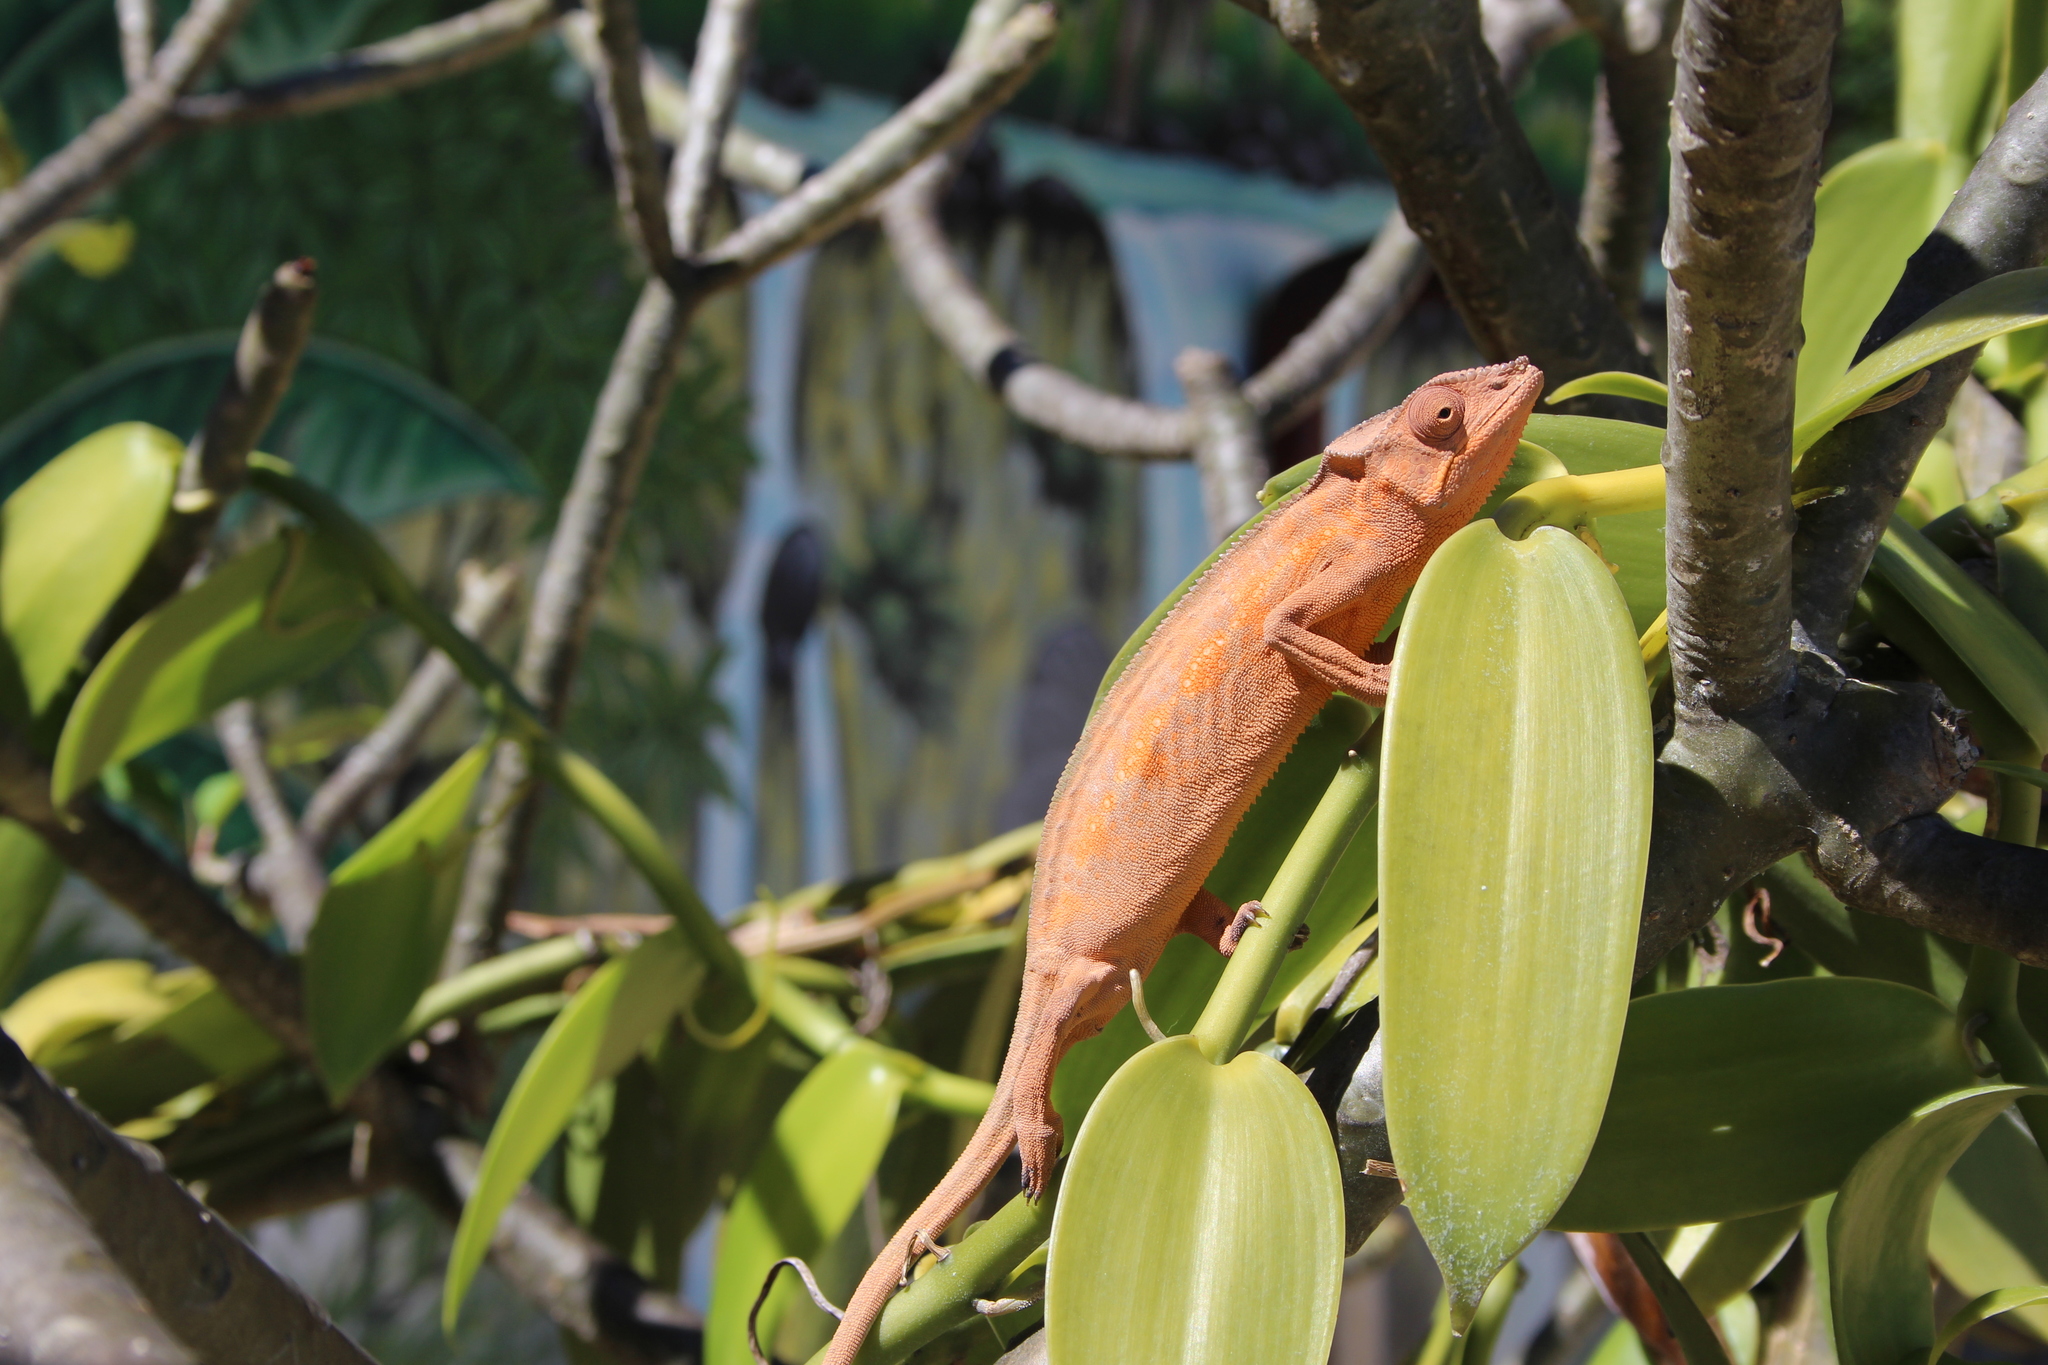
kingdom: Animalia
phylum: Chordata
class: Squamata
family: Chamaeleonidae
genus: Furcifer
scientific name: Furcifer pardalis
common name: Panther chameleon
